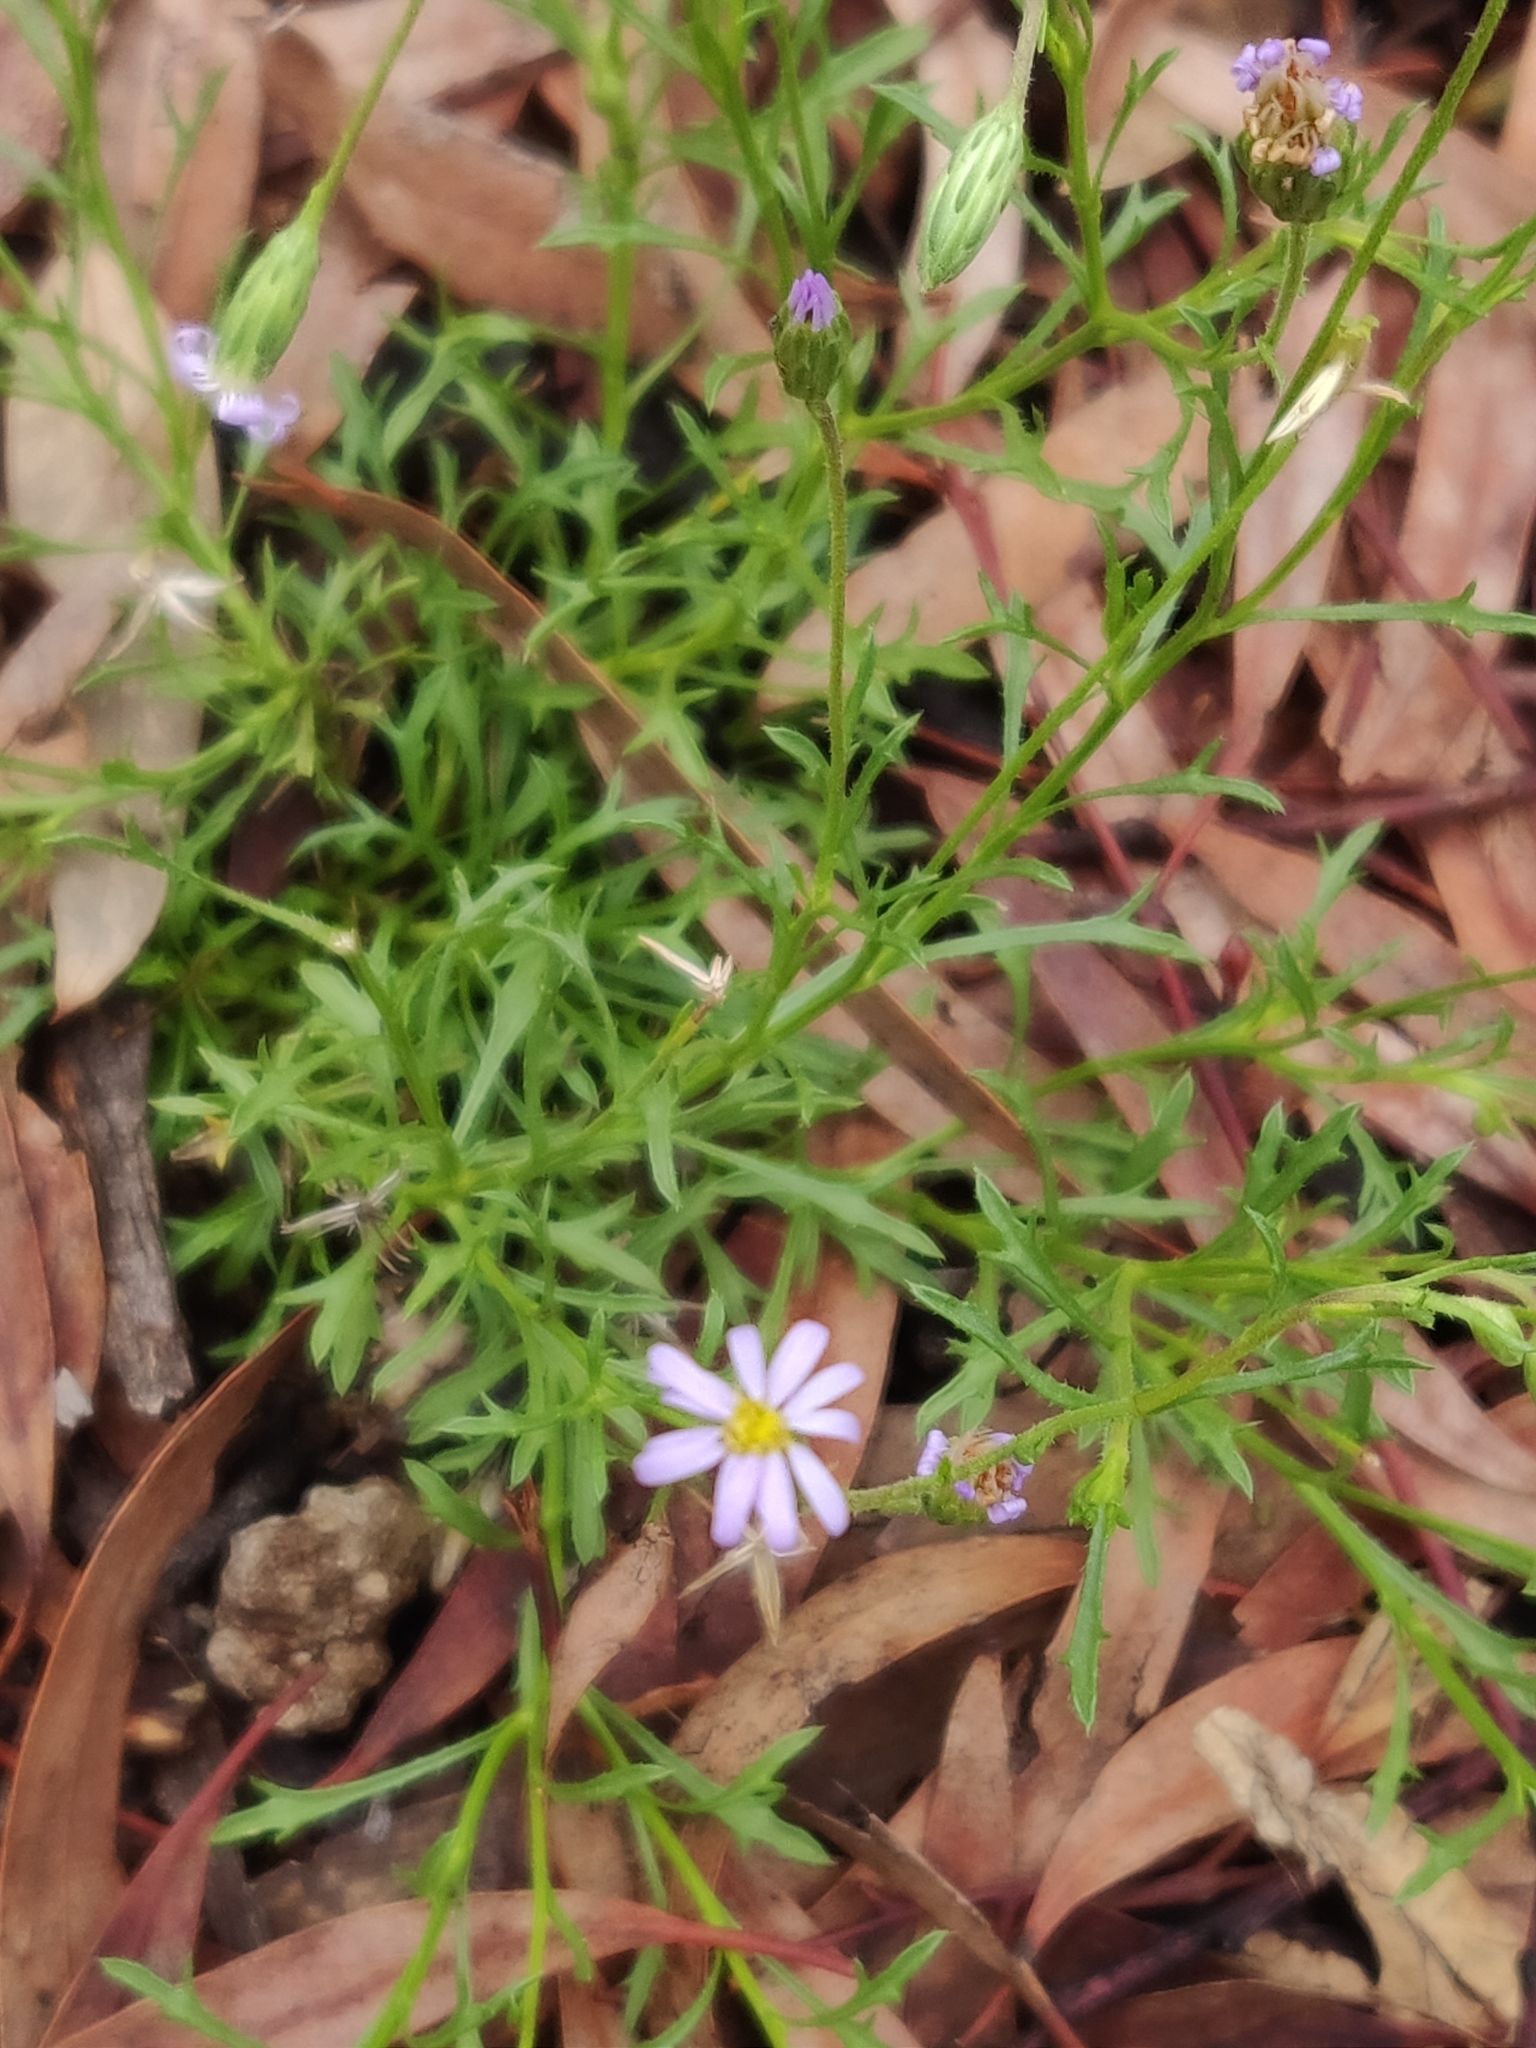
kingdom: Plantae
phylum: Tracheophyta
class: Magnoliopsida
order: Asterales
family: Asteraceae
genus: Vittadinia
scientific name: Vittadinia muelleri
